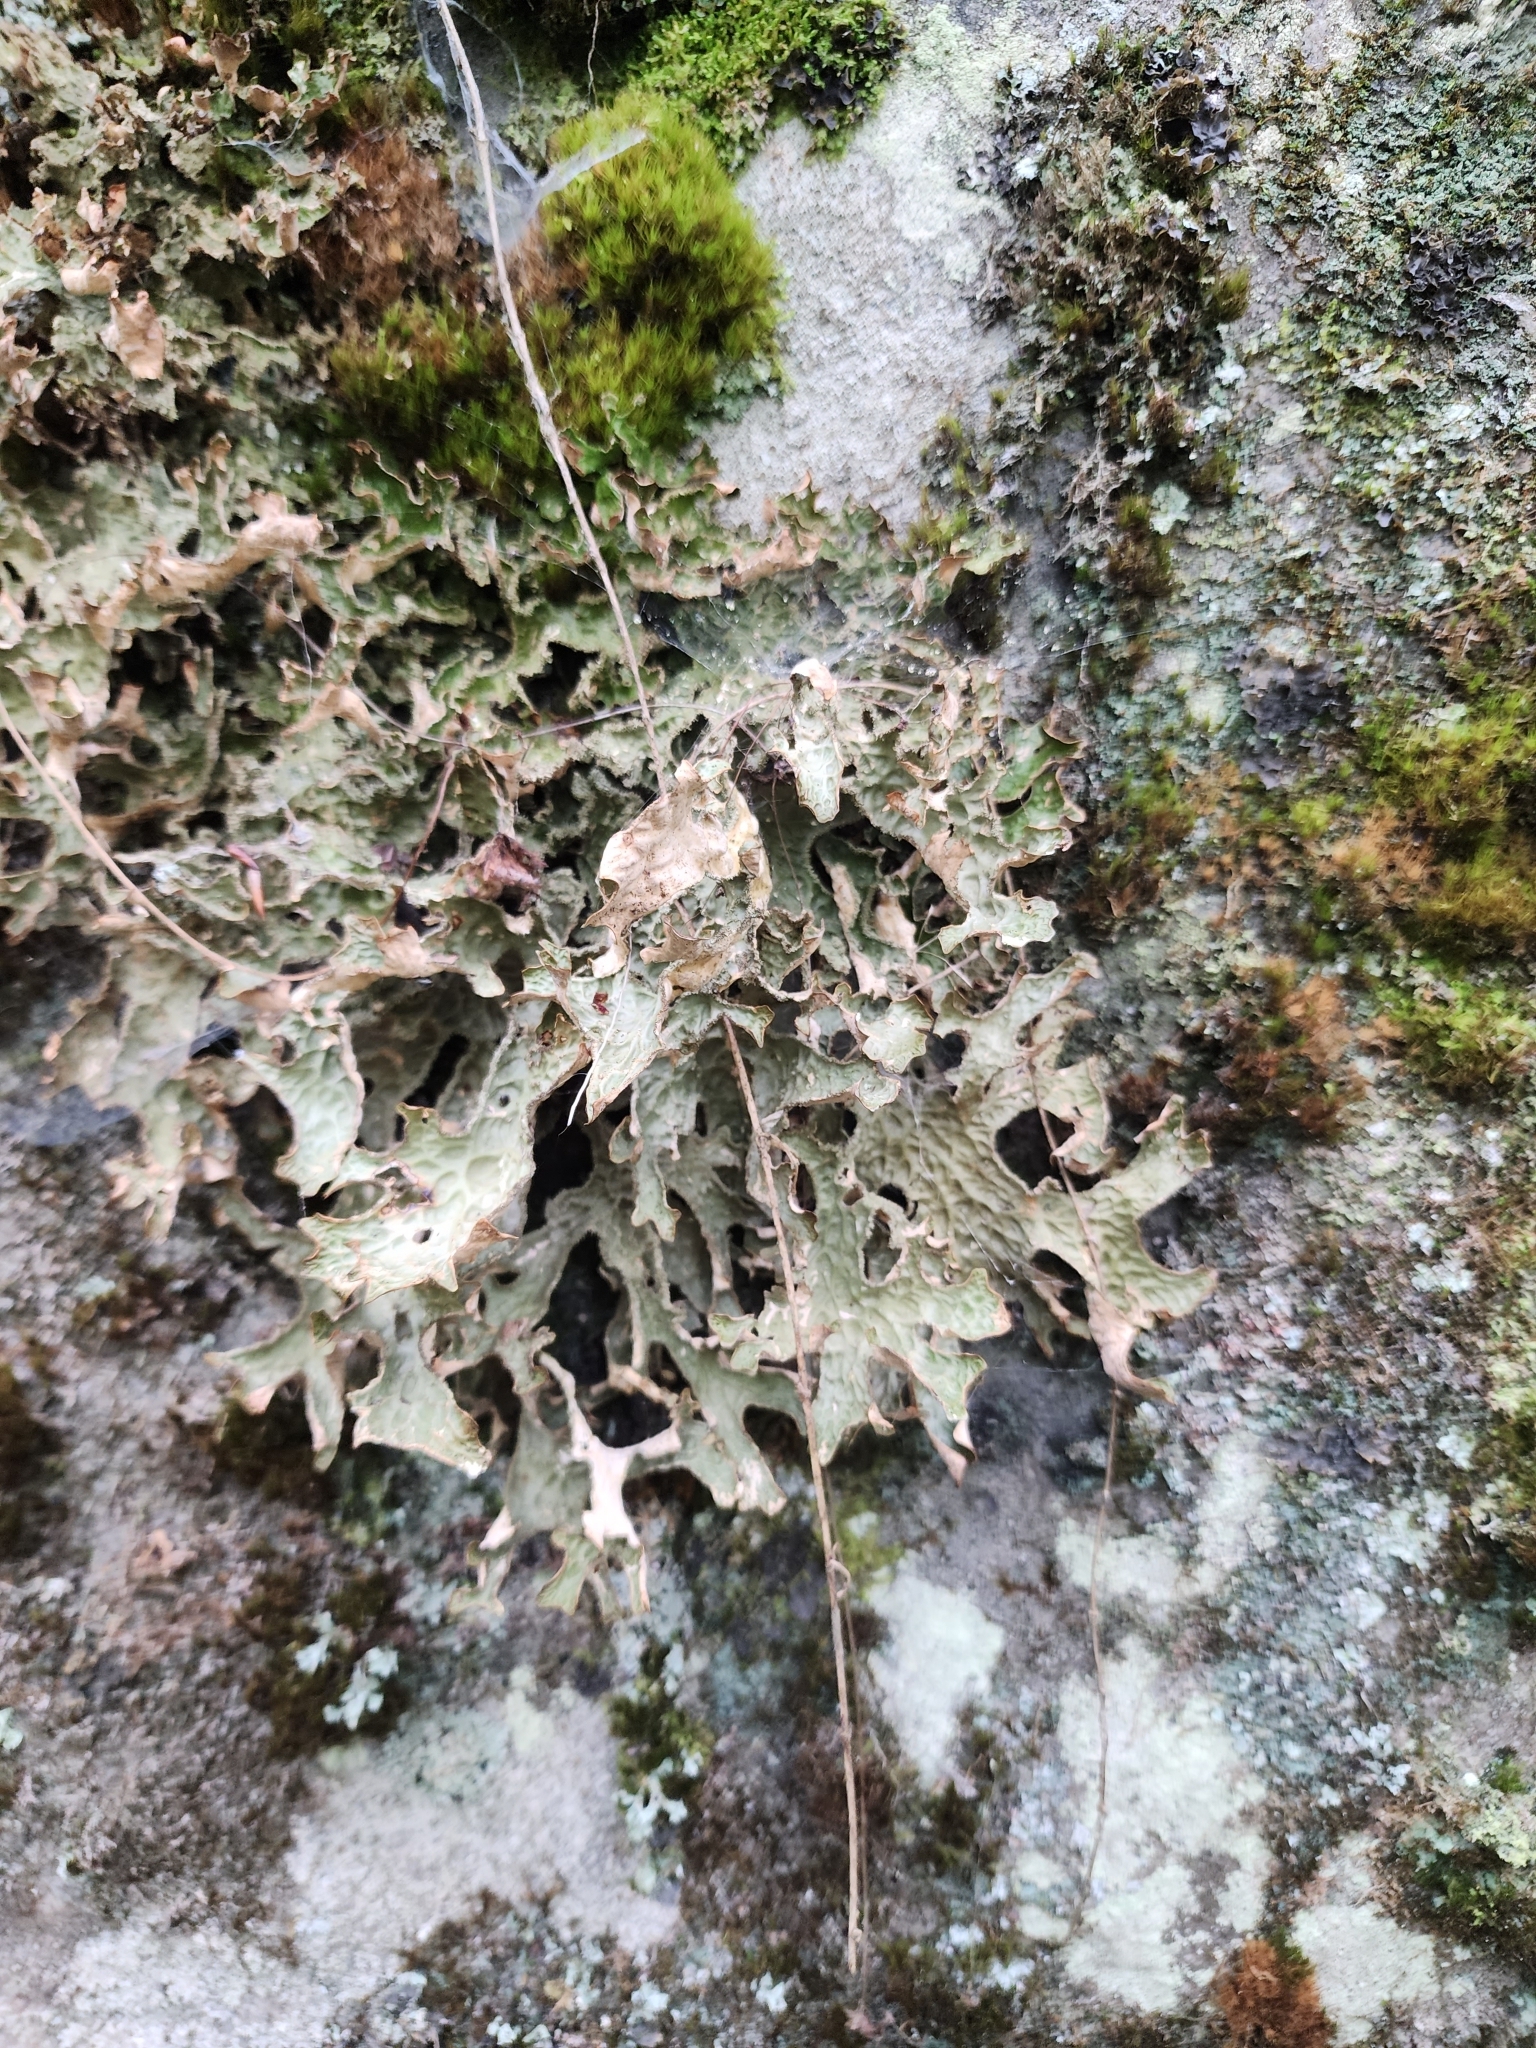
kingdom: Fungi
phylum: Ascomycota
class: Lecanoromycetes
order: Peltigerales
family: Lobariaceae
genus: Lobaria
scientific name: Lobaria pulmonaria
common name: Lungwort
